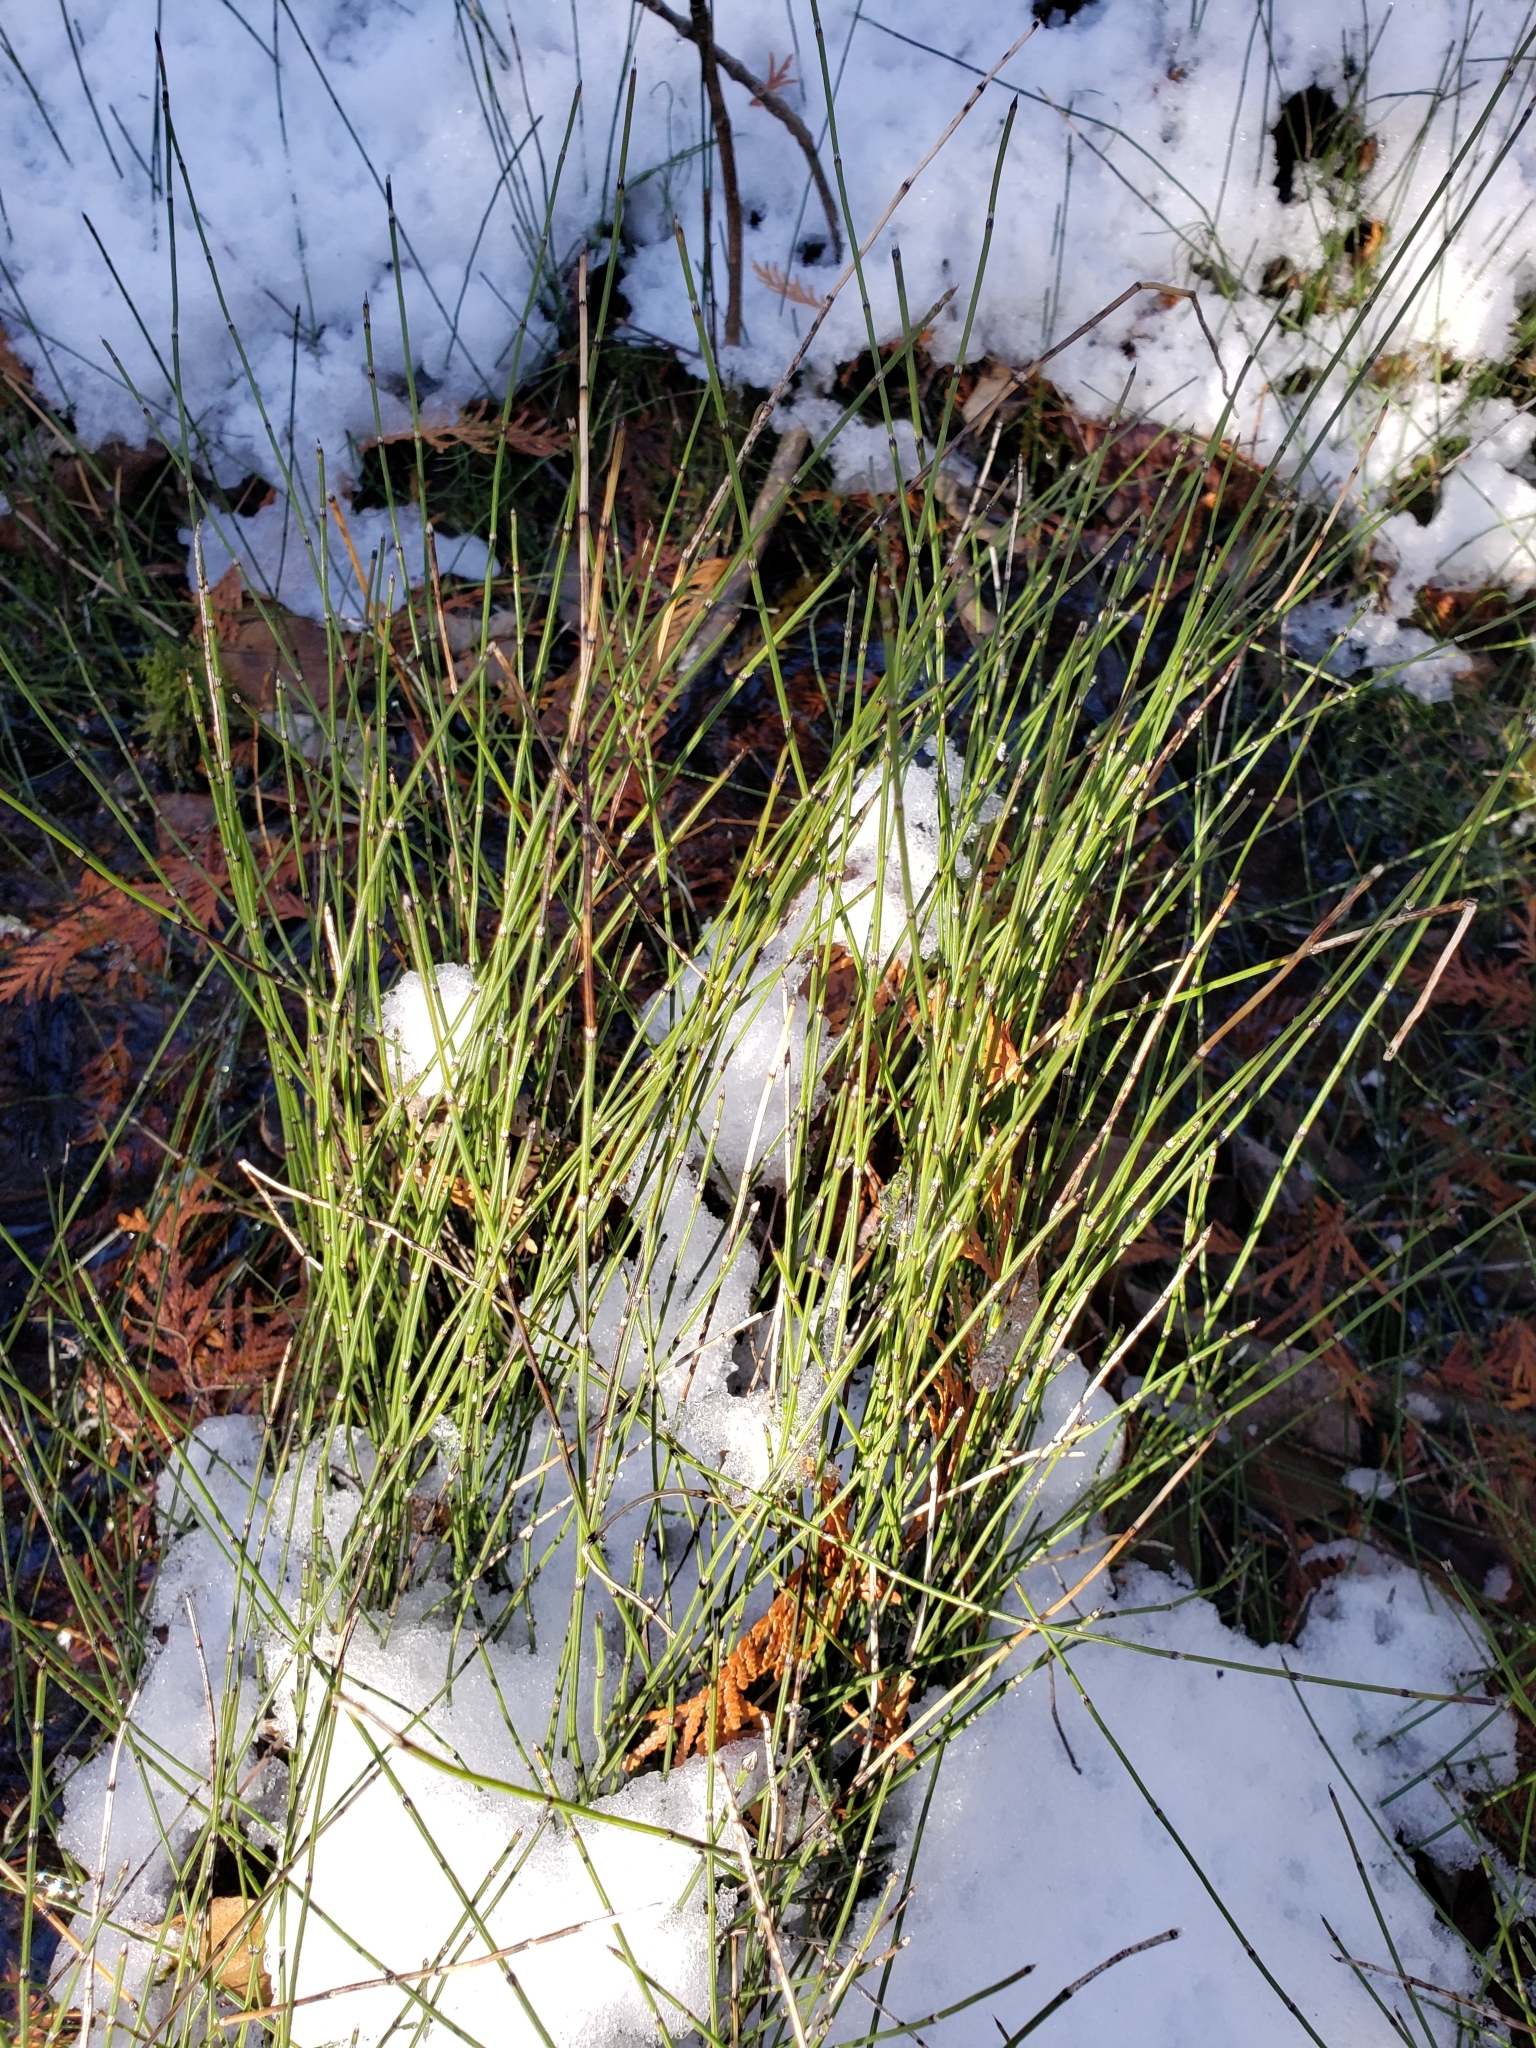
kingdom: Plantae
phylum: Tracheophyta
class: Polypodiopsida
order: Equisetales
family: Equisetaceae
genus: Equisetum
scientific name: Equisetum variegatum
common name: Variegated horsetail
